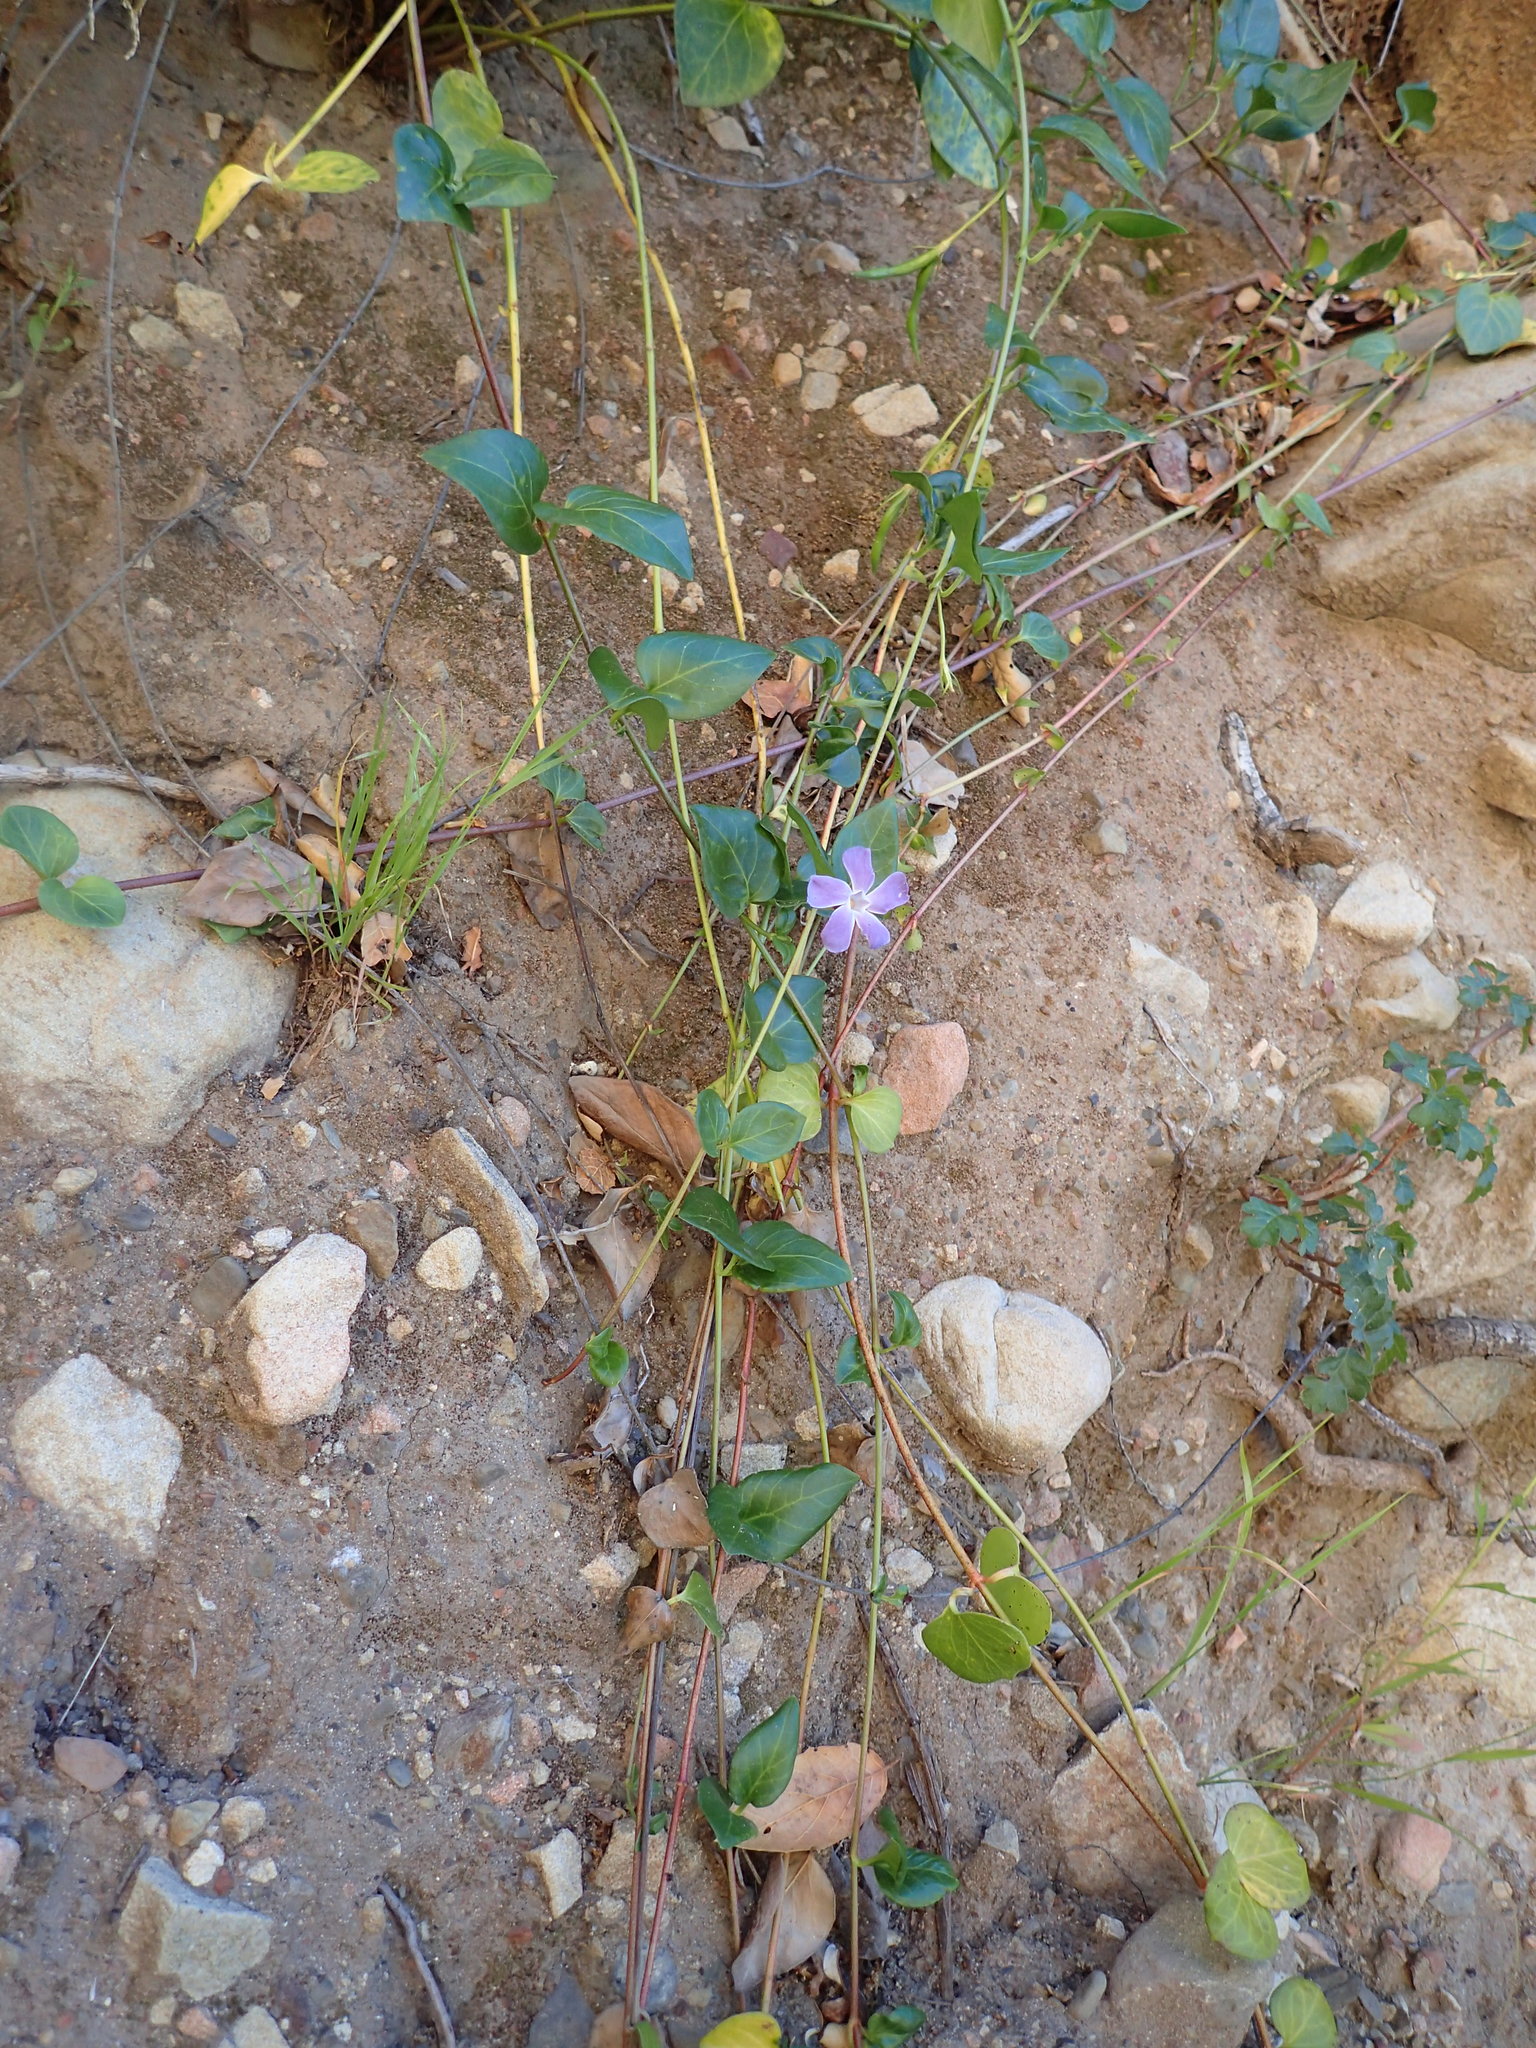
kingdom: Plantae
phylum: Tracheophyta
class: Magnoliopsida
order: Gentianales
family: Apocynaceae
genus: Vinca
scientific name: Vinca major
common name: Greater periwinkle
